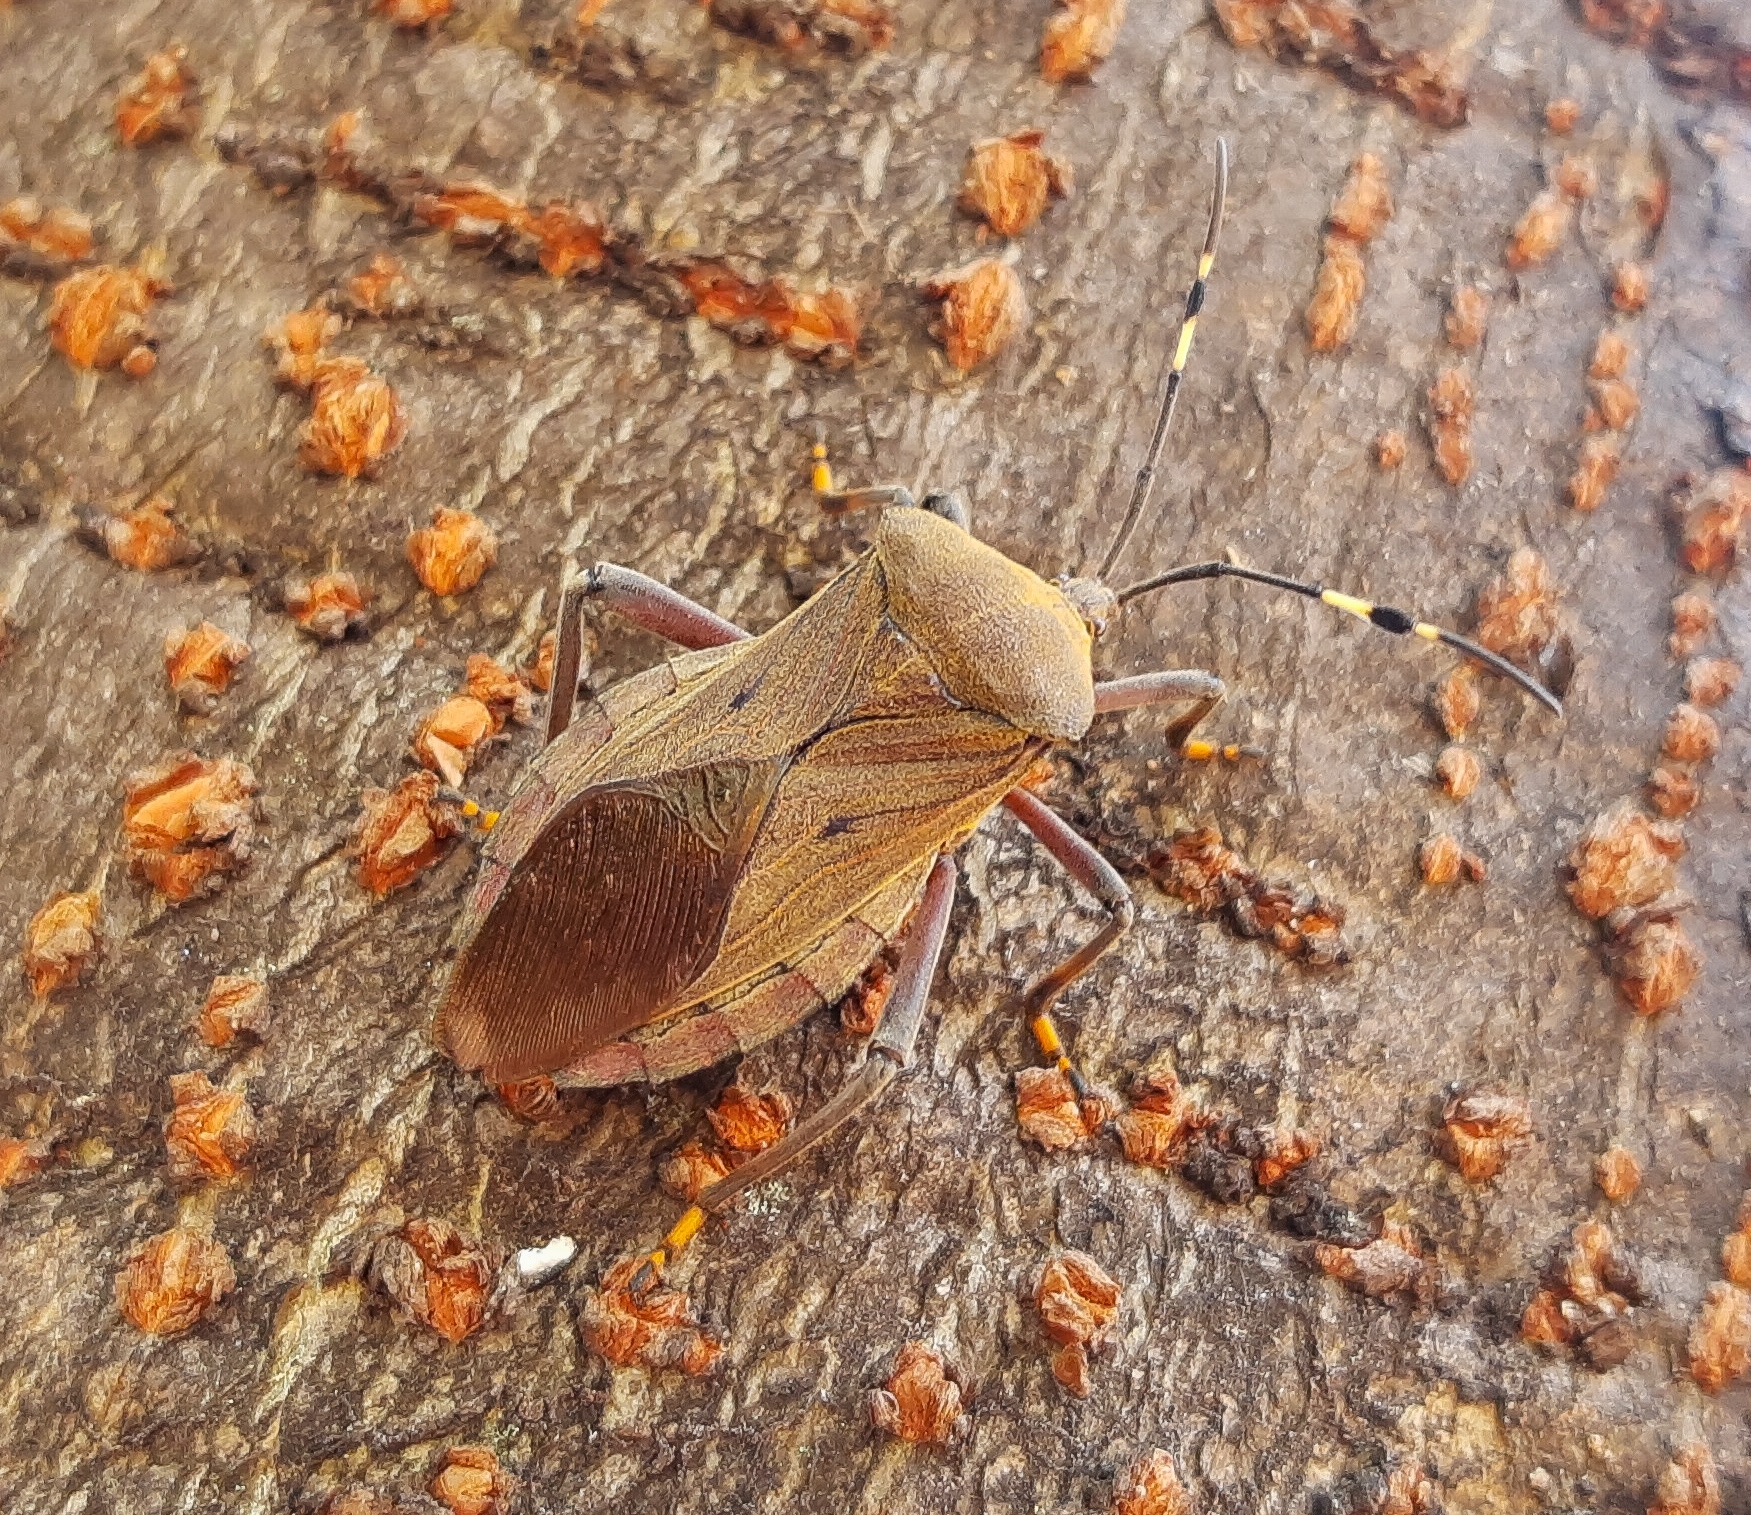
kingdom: Animalia
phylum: Arthropoda
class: Insecta
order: Hemiptera
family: Coreidae
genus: Pachylis
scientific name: Pachylis laticornis
